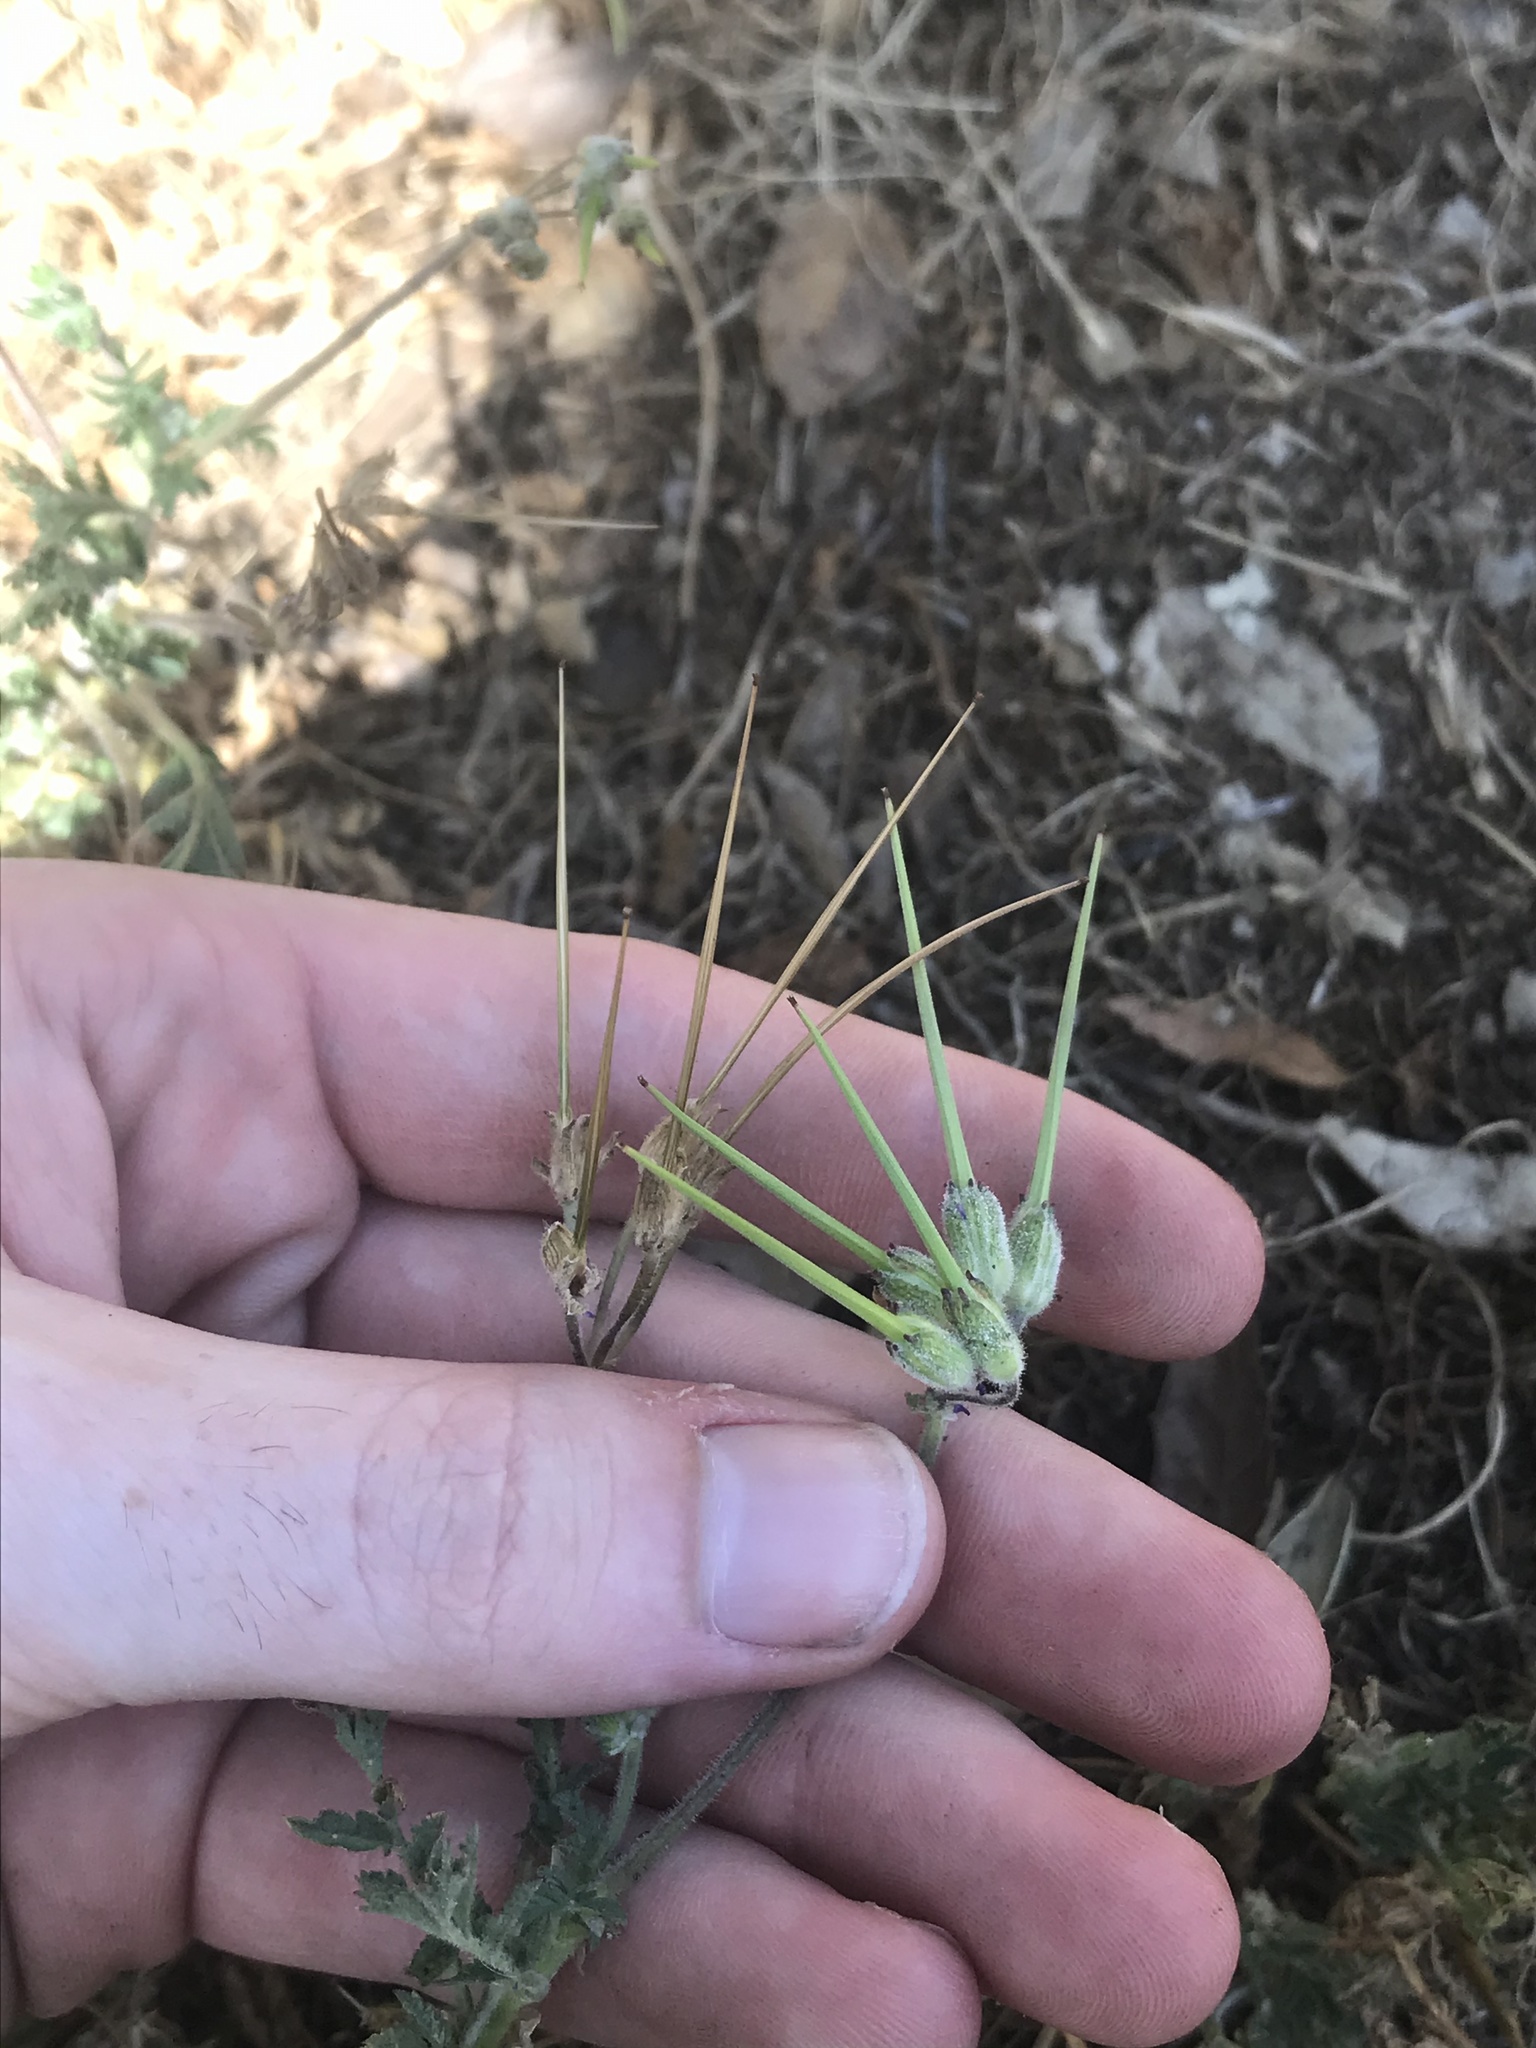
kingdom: Plantae
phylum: Tracheophyta
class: Magnoliopsida
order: Geraniales
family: Geraniaceae
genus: Erodium
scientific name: Erodium moschatum
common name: Musk stork's-bill
